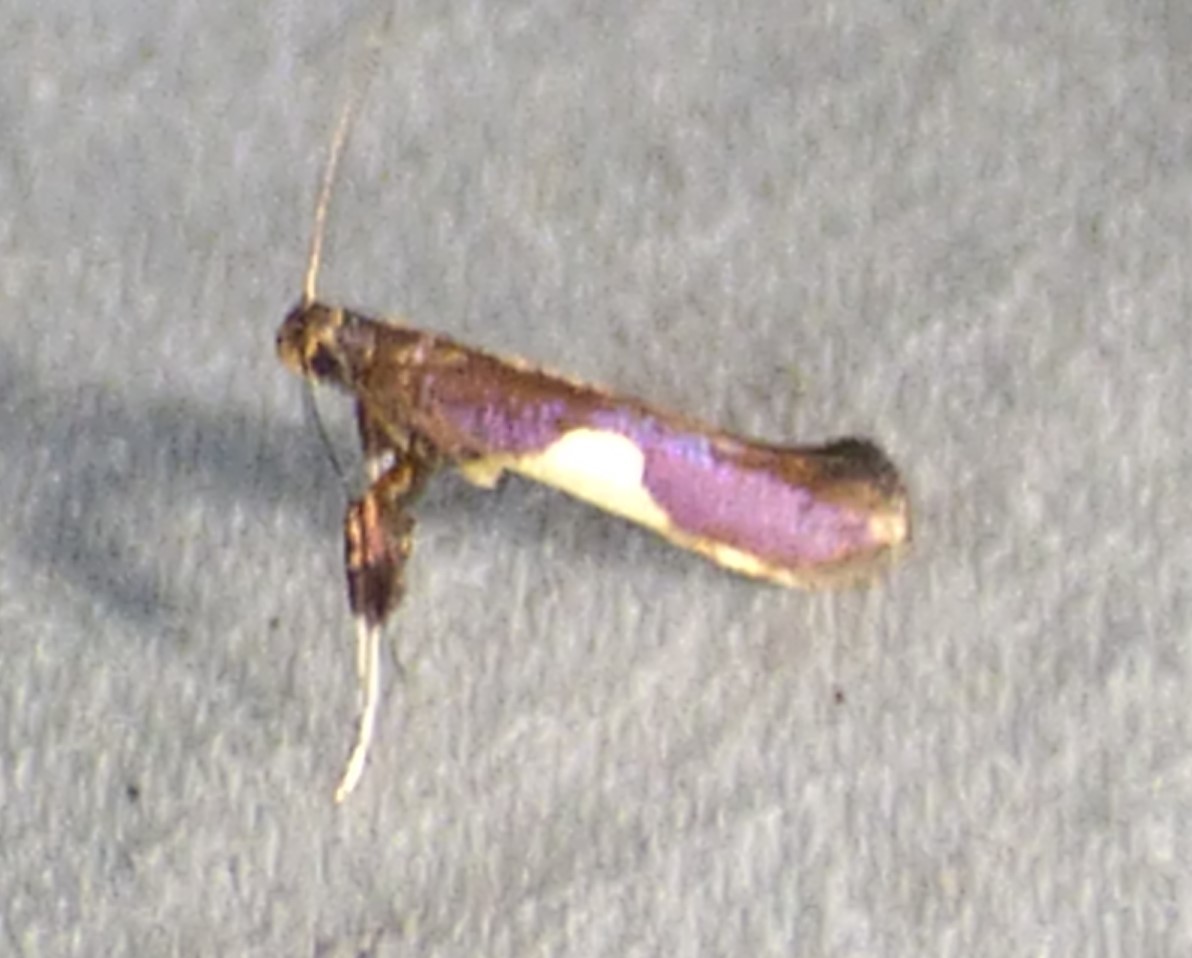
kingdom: Animalia
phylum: Arthropoda
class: Insecta
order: Lepidoptera
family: Gracillariidae
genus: Caloptilia
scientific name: Caloptilia bimaculatella
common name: Maple caloptilia moth
